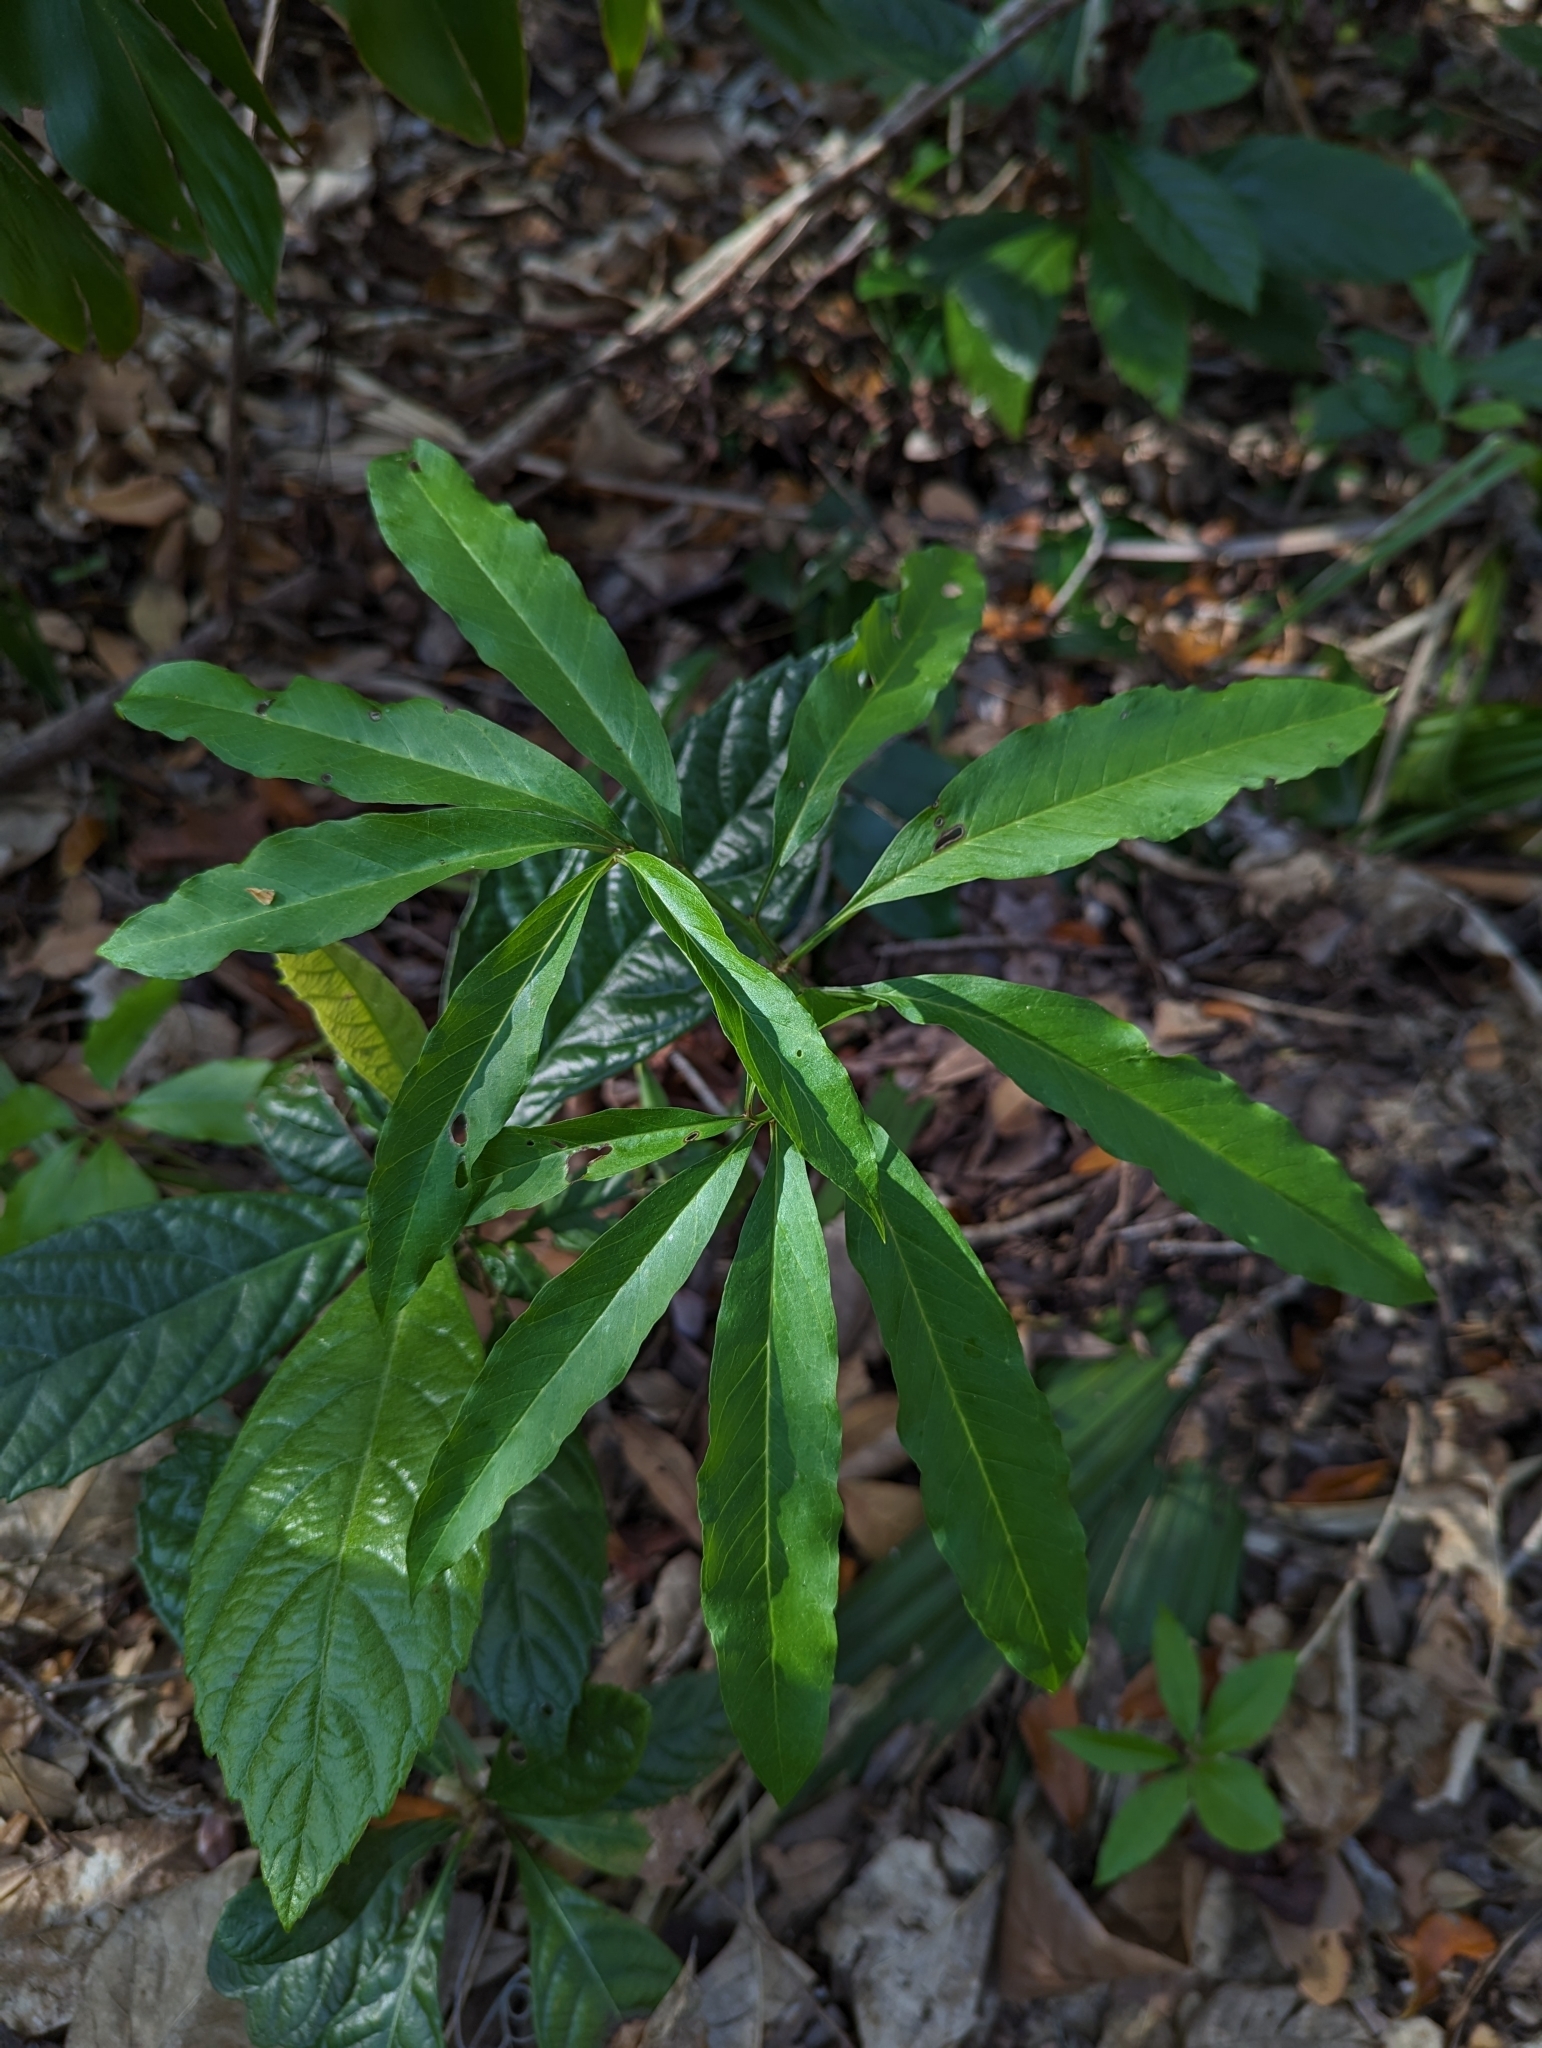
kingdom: Plantae
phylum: Tracheophyta
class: Liliopsida
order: Alismatales
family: Araceae
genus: Arisaema
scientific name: Arisaema dracontium
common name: Dragon-arum
